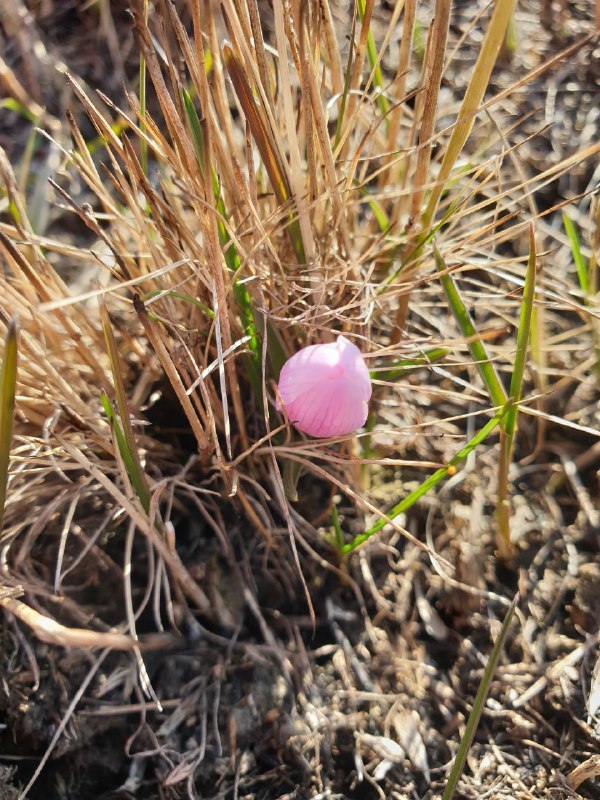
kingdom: Plantae
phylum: Tracheophyta
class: Liliopsida
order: Liliales
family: Colchicaceae
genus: Colchicum
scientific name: Colchicum bulbocodium
